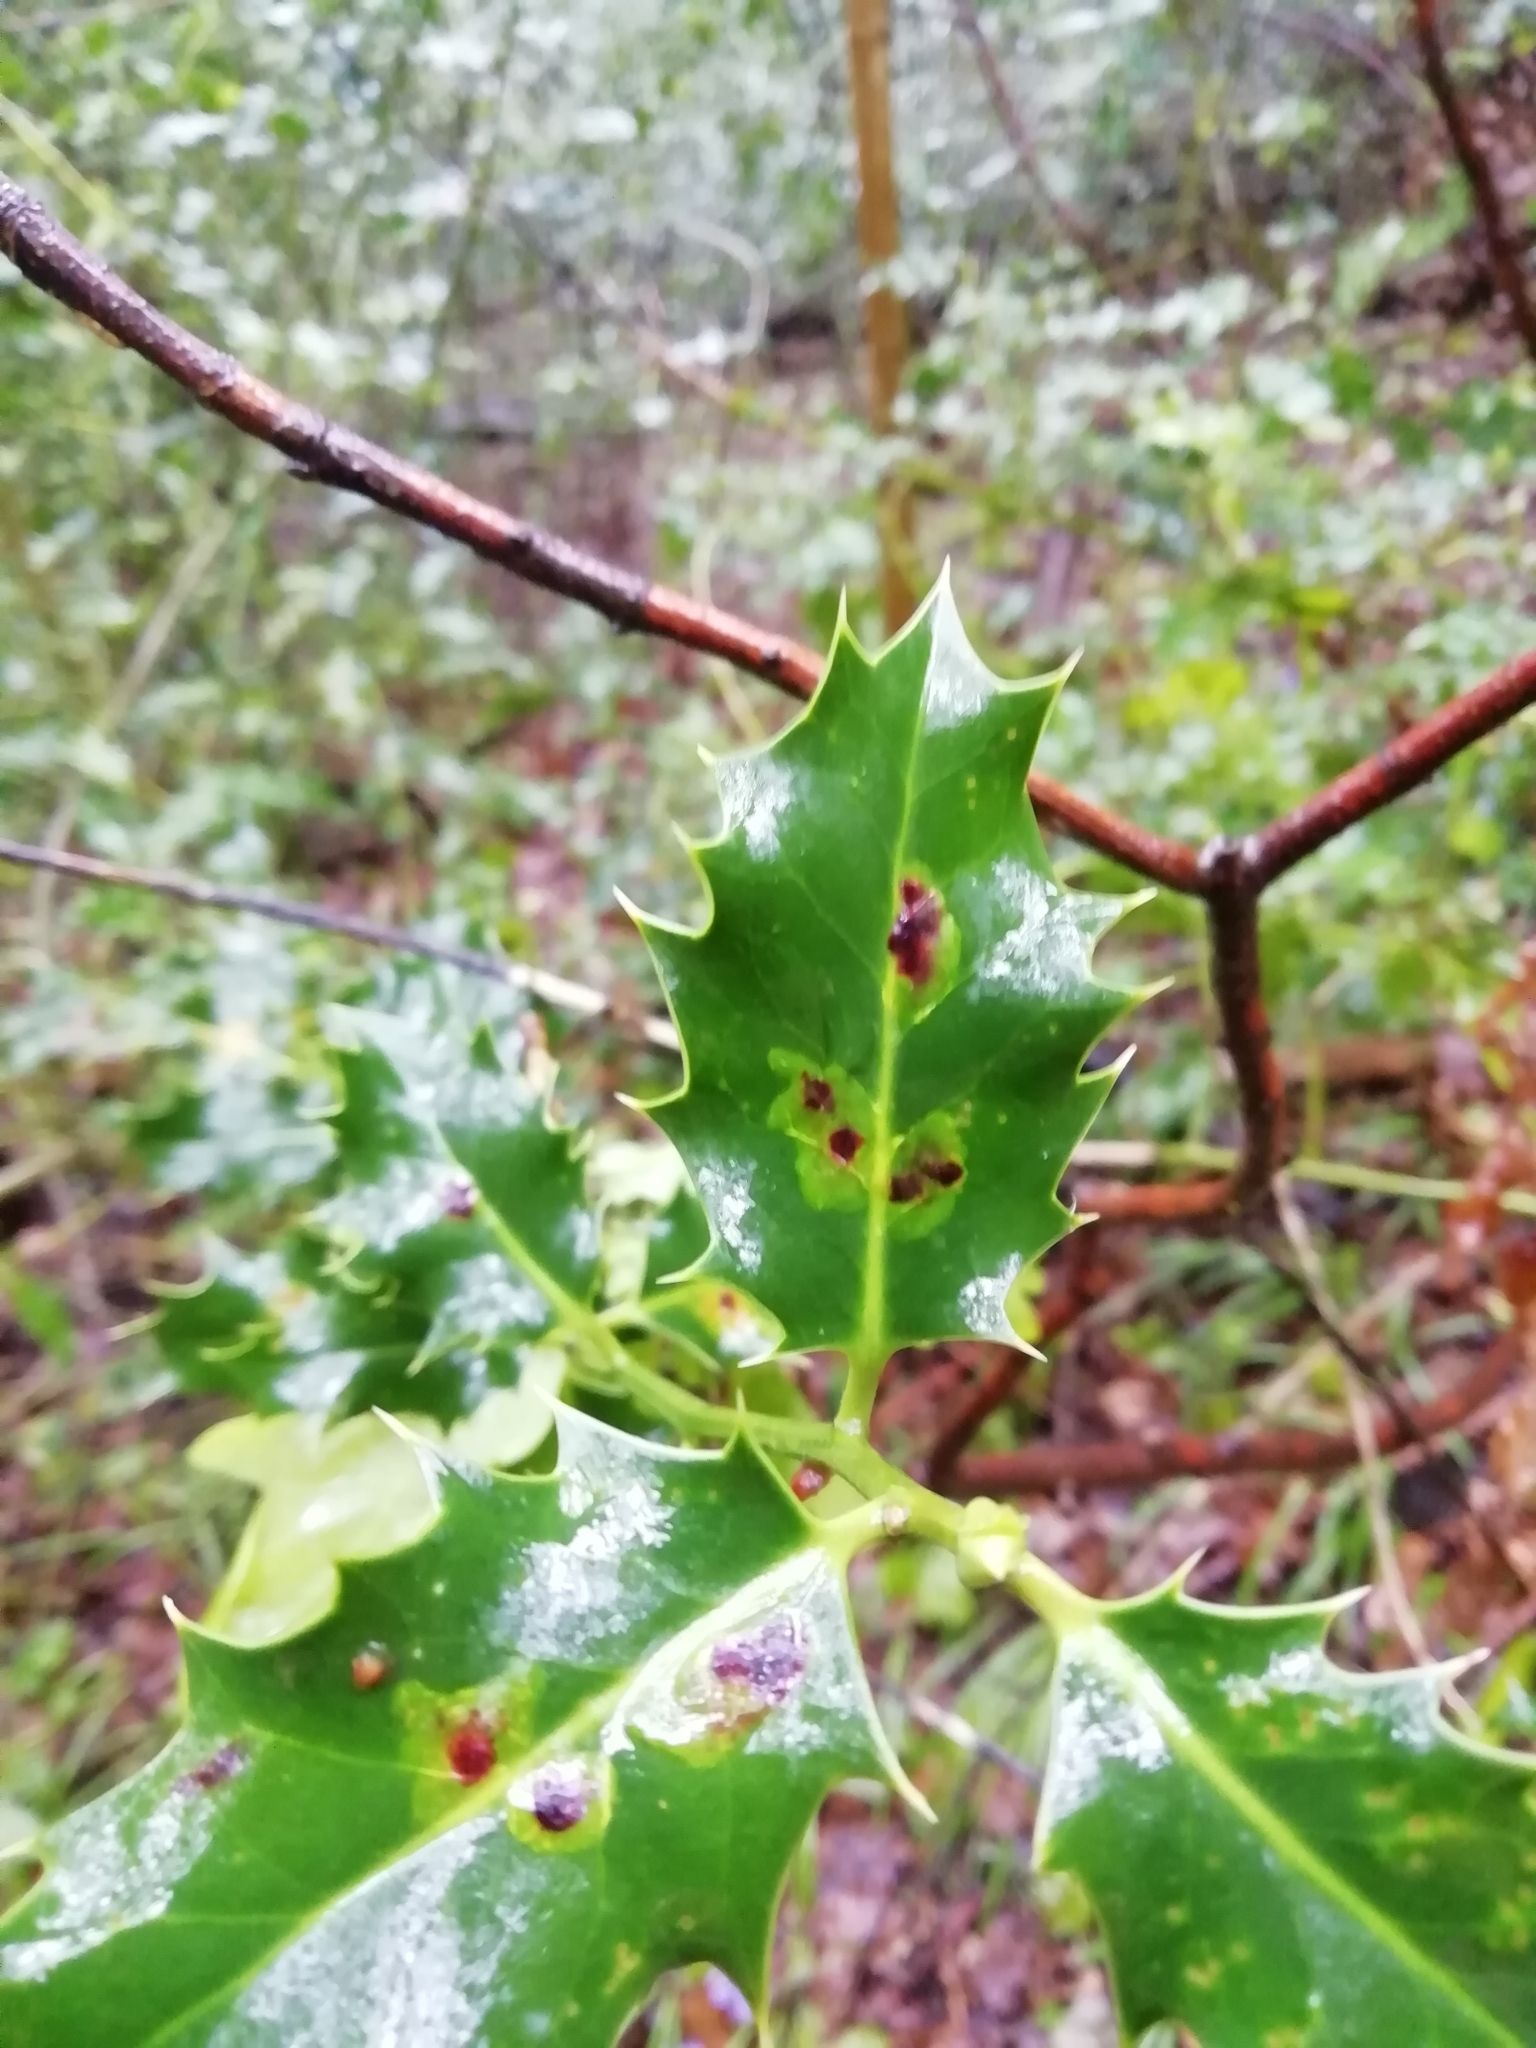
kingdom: Animalia
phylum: Arthropoda
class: Insecta
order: Diptera
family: Agromyzidae
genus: Phytomyza
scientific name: Phytomyza ilicis
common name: Holly leafminer
